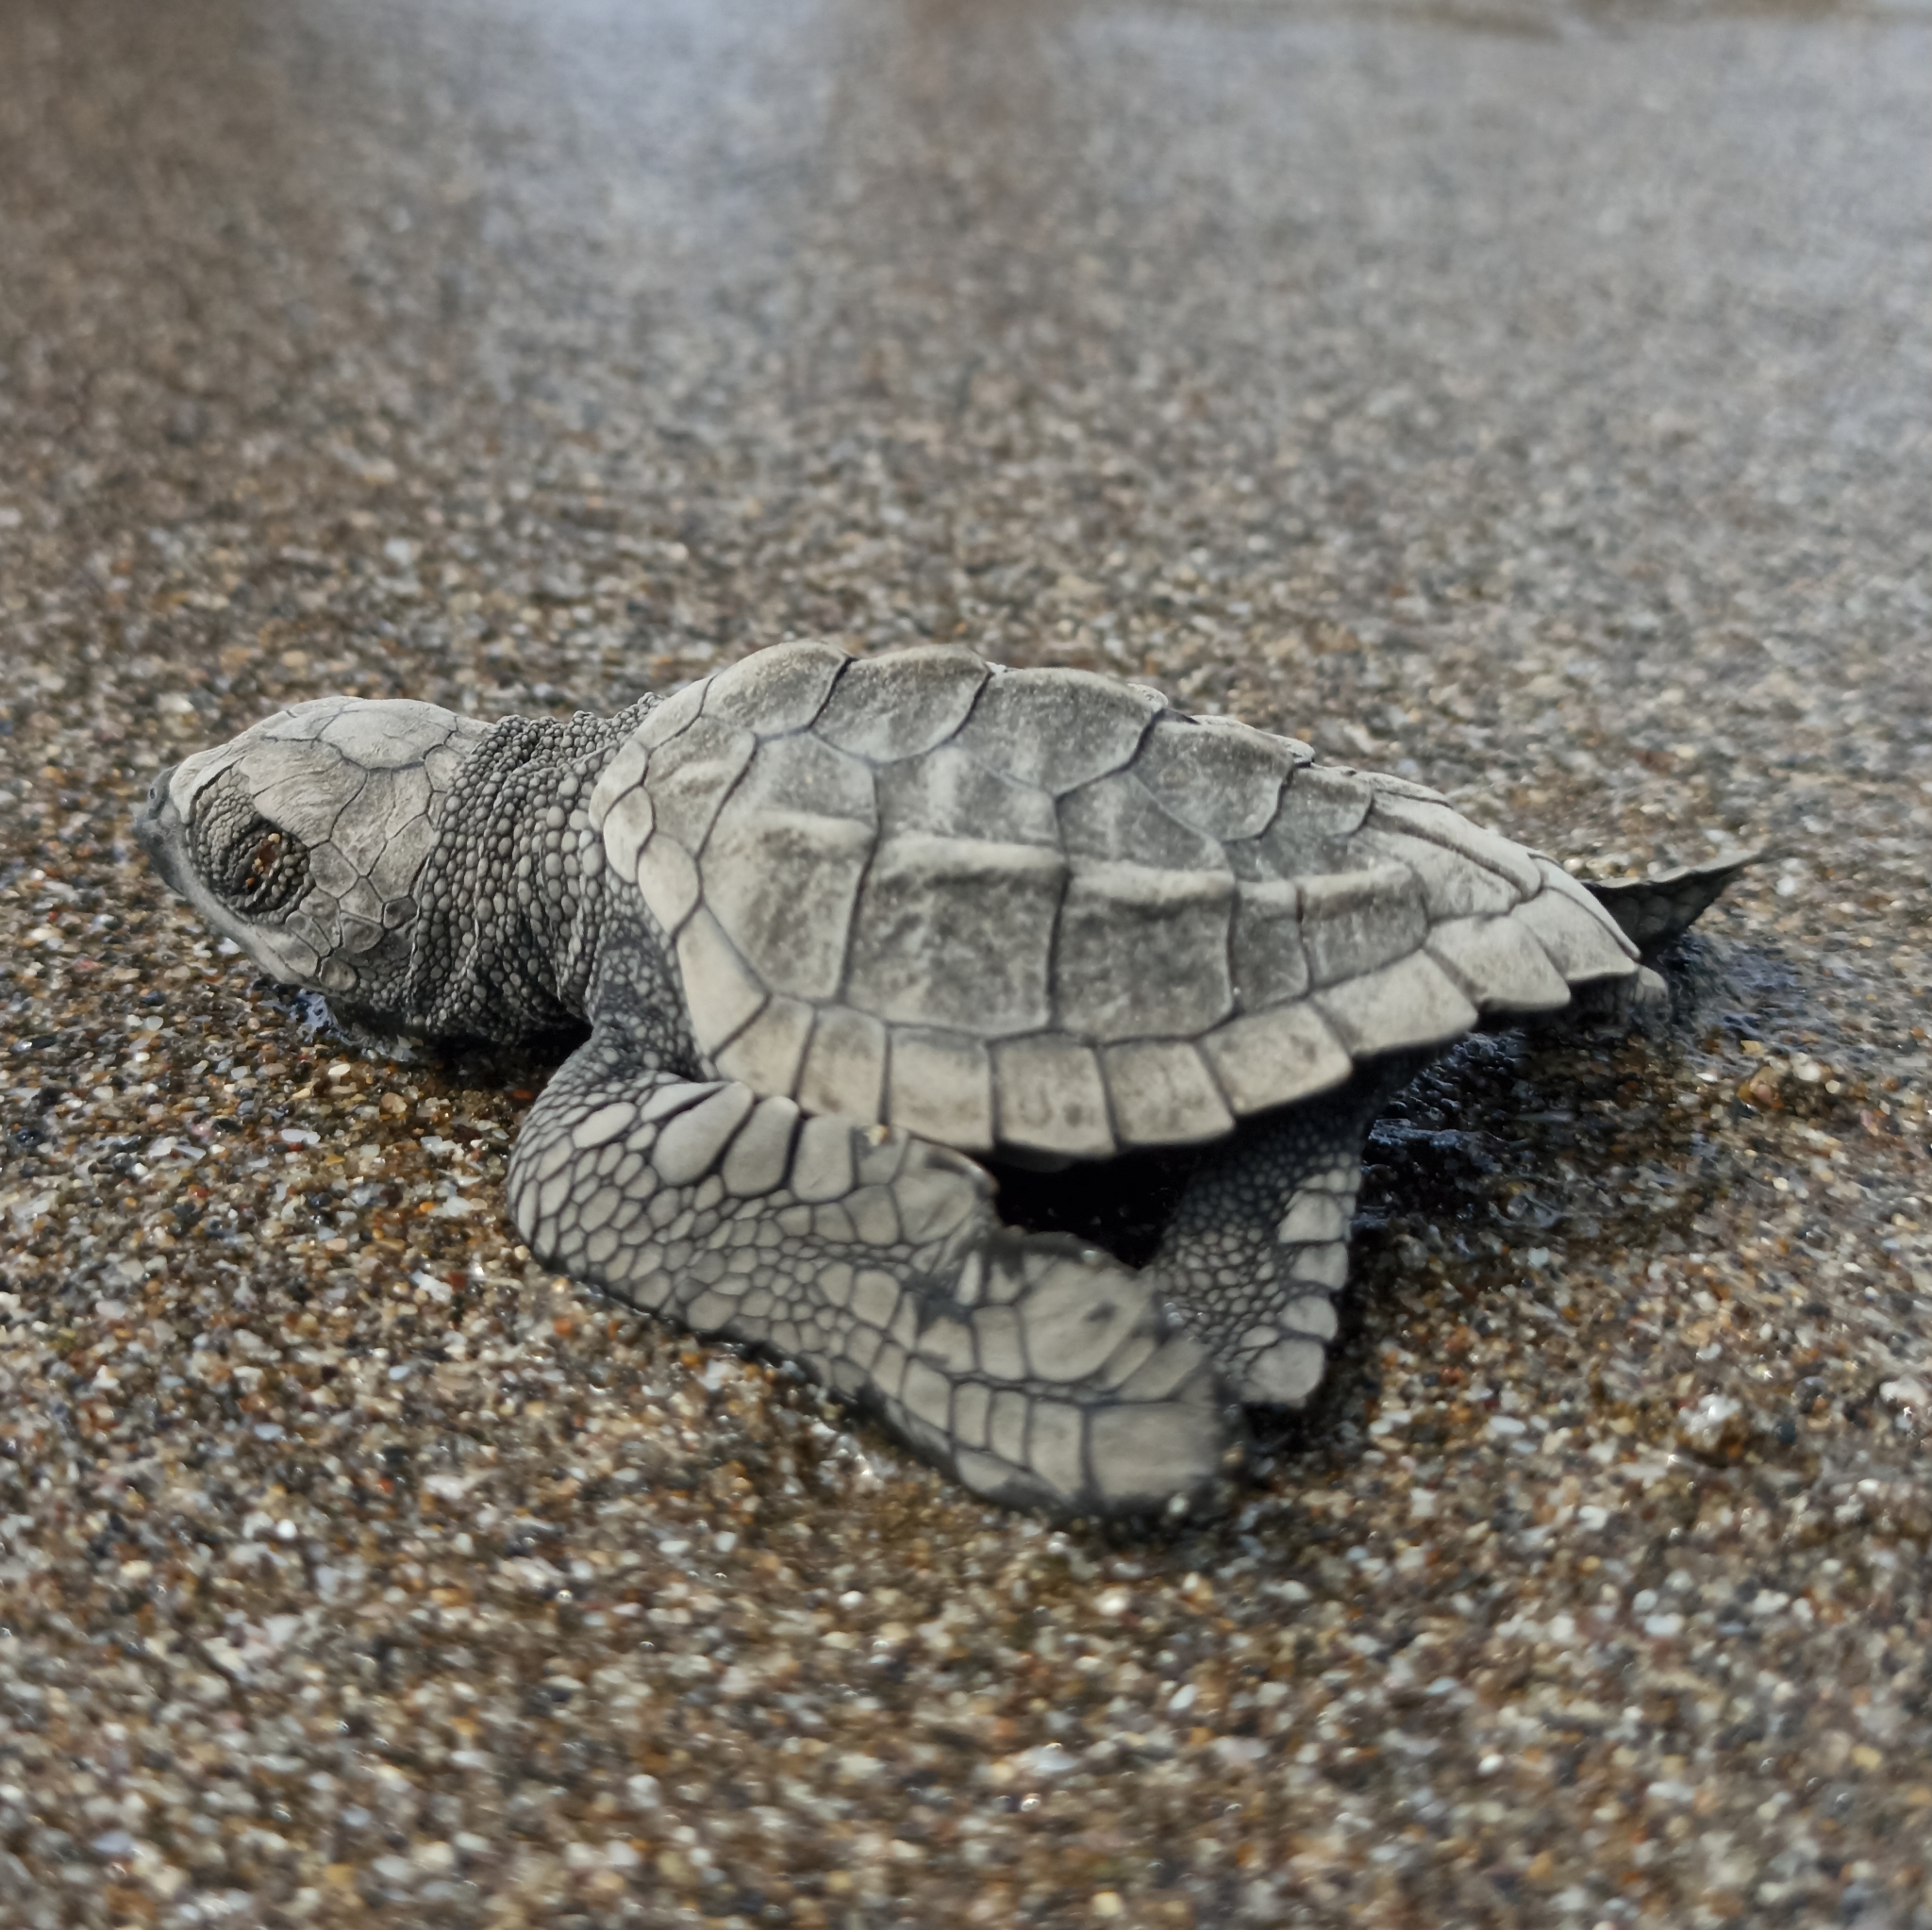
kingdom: Animalia
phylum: Chordata
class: Testudines
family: Cheloniidae
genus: Lepidochelys
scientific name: Lepidochelys olivacea
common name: Olive ridley
